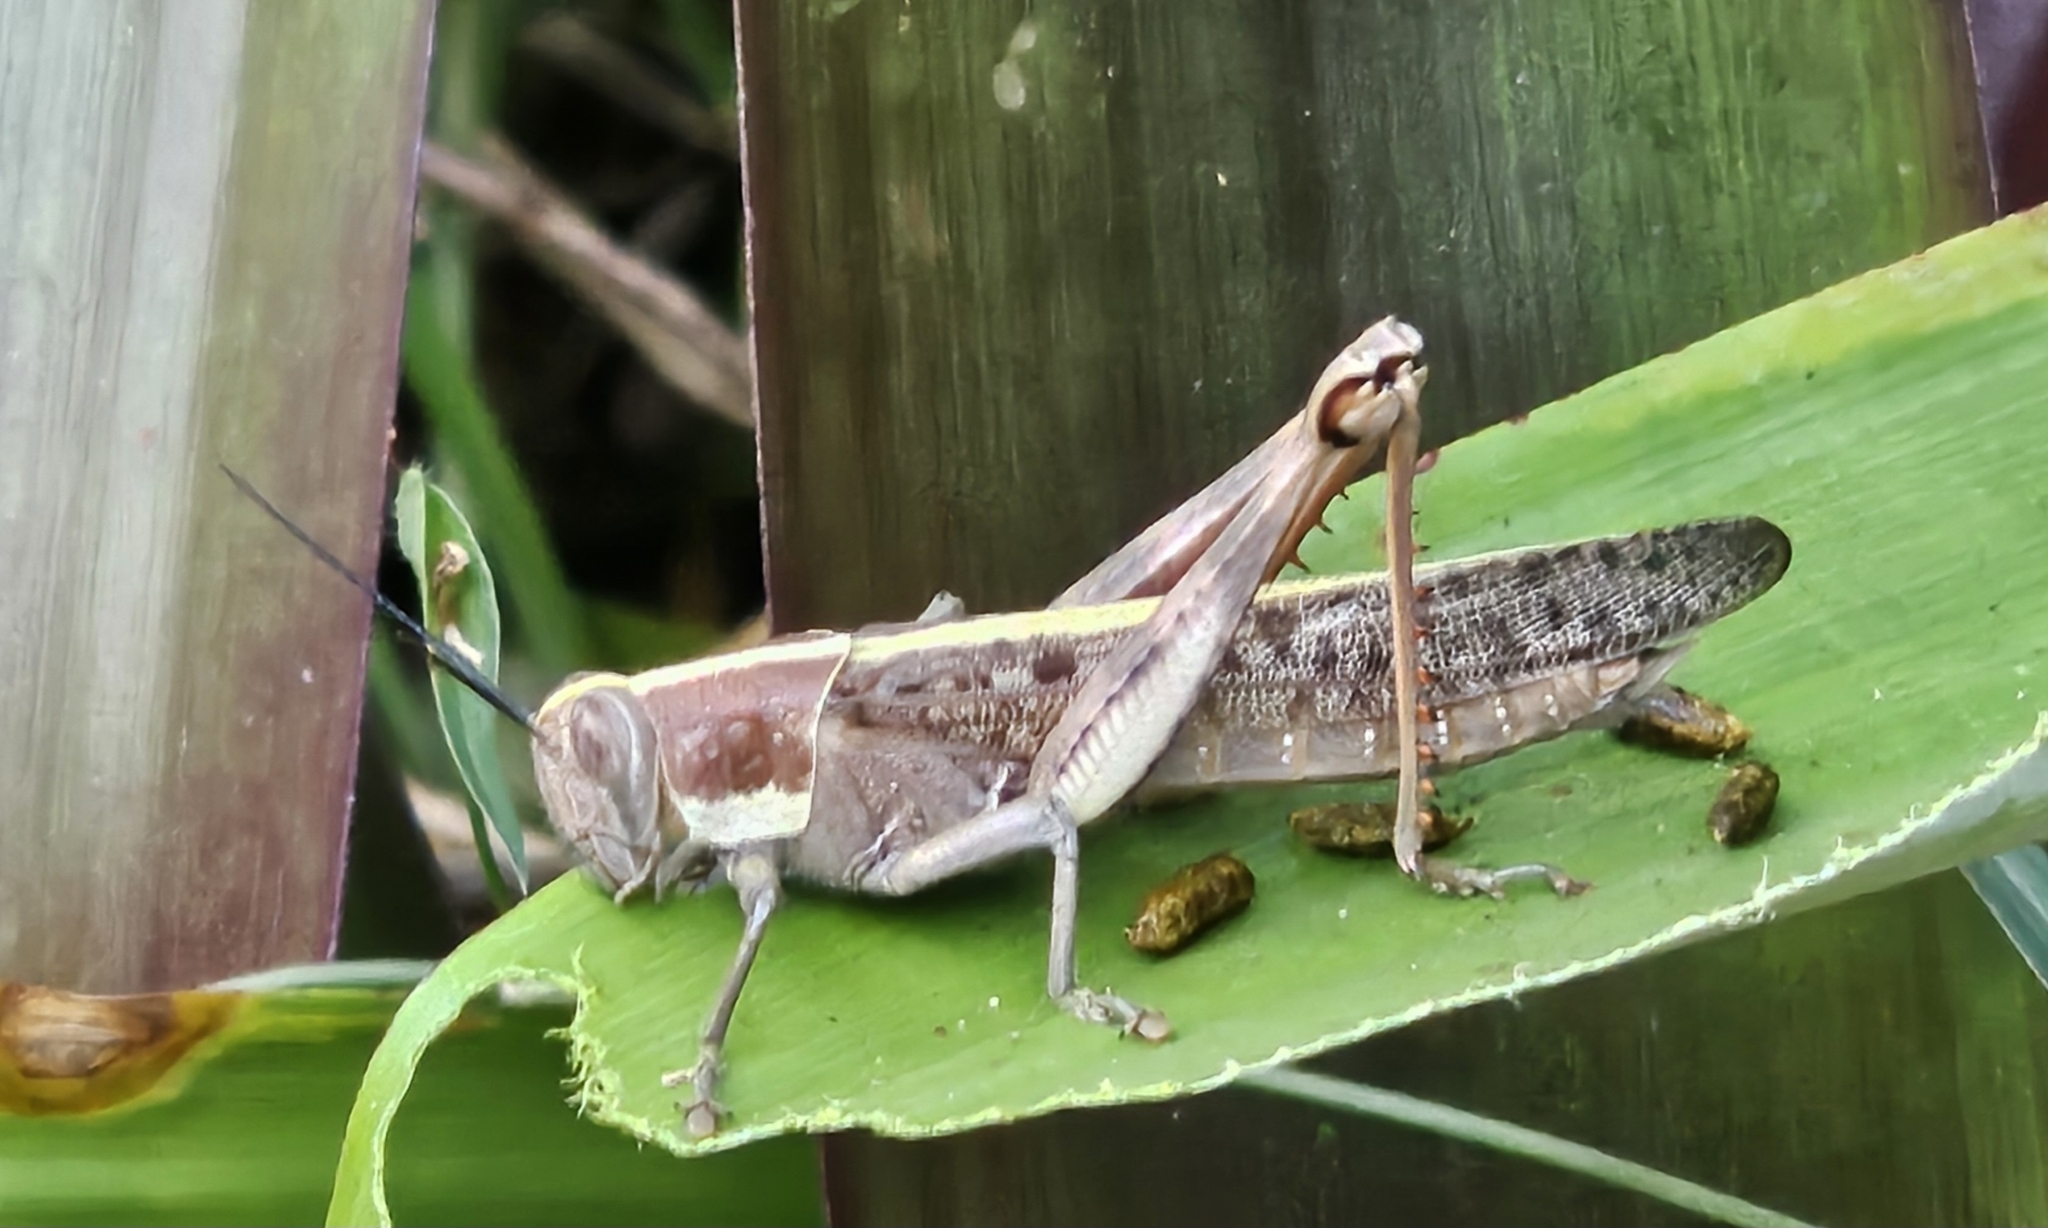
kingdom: Animalia
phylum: Arthropoda
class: Insecta
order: Orthoptera
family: Acrididae
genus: Valanga
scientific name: Valanga irregularis
